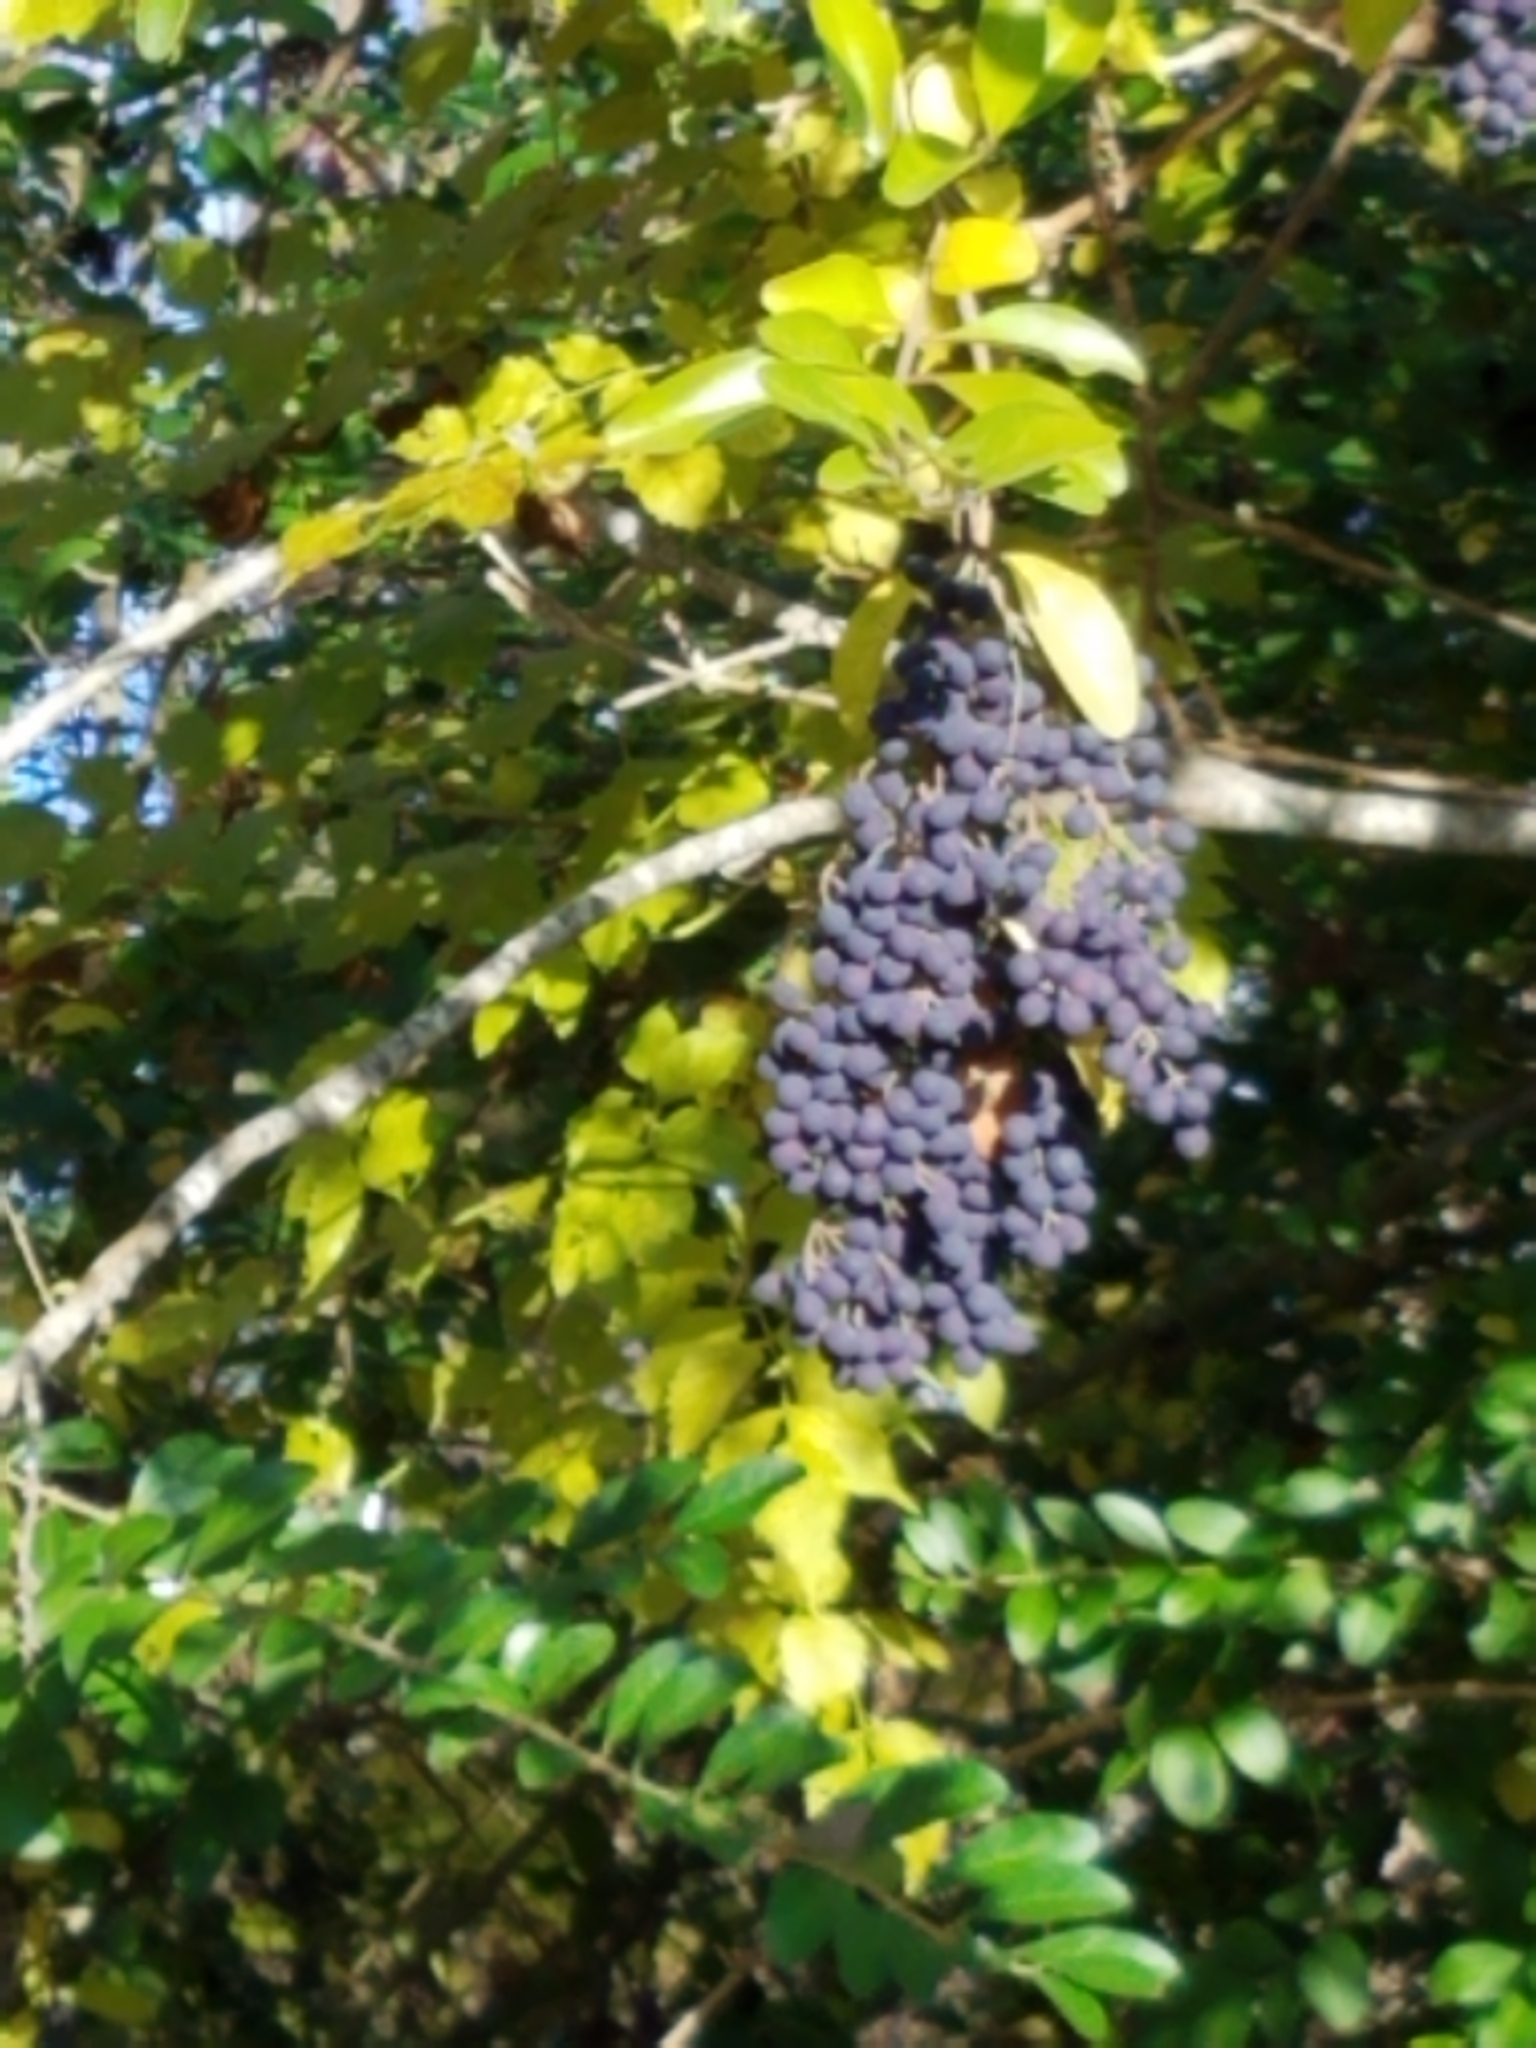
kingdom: Plantae
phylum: Tracheophyta
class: Magnoliopsida
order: Lamiales
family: Oleaceae
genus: Ligustrum
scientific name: Ligustrum obtusifolium
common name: Border privet
